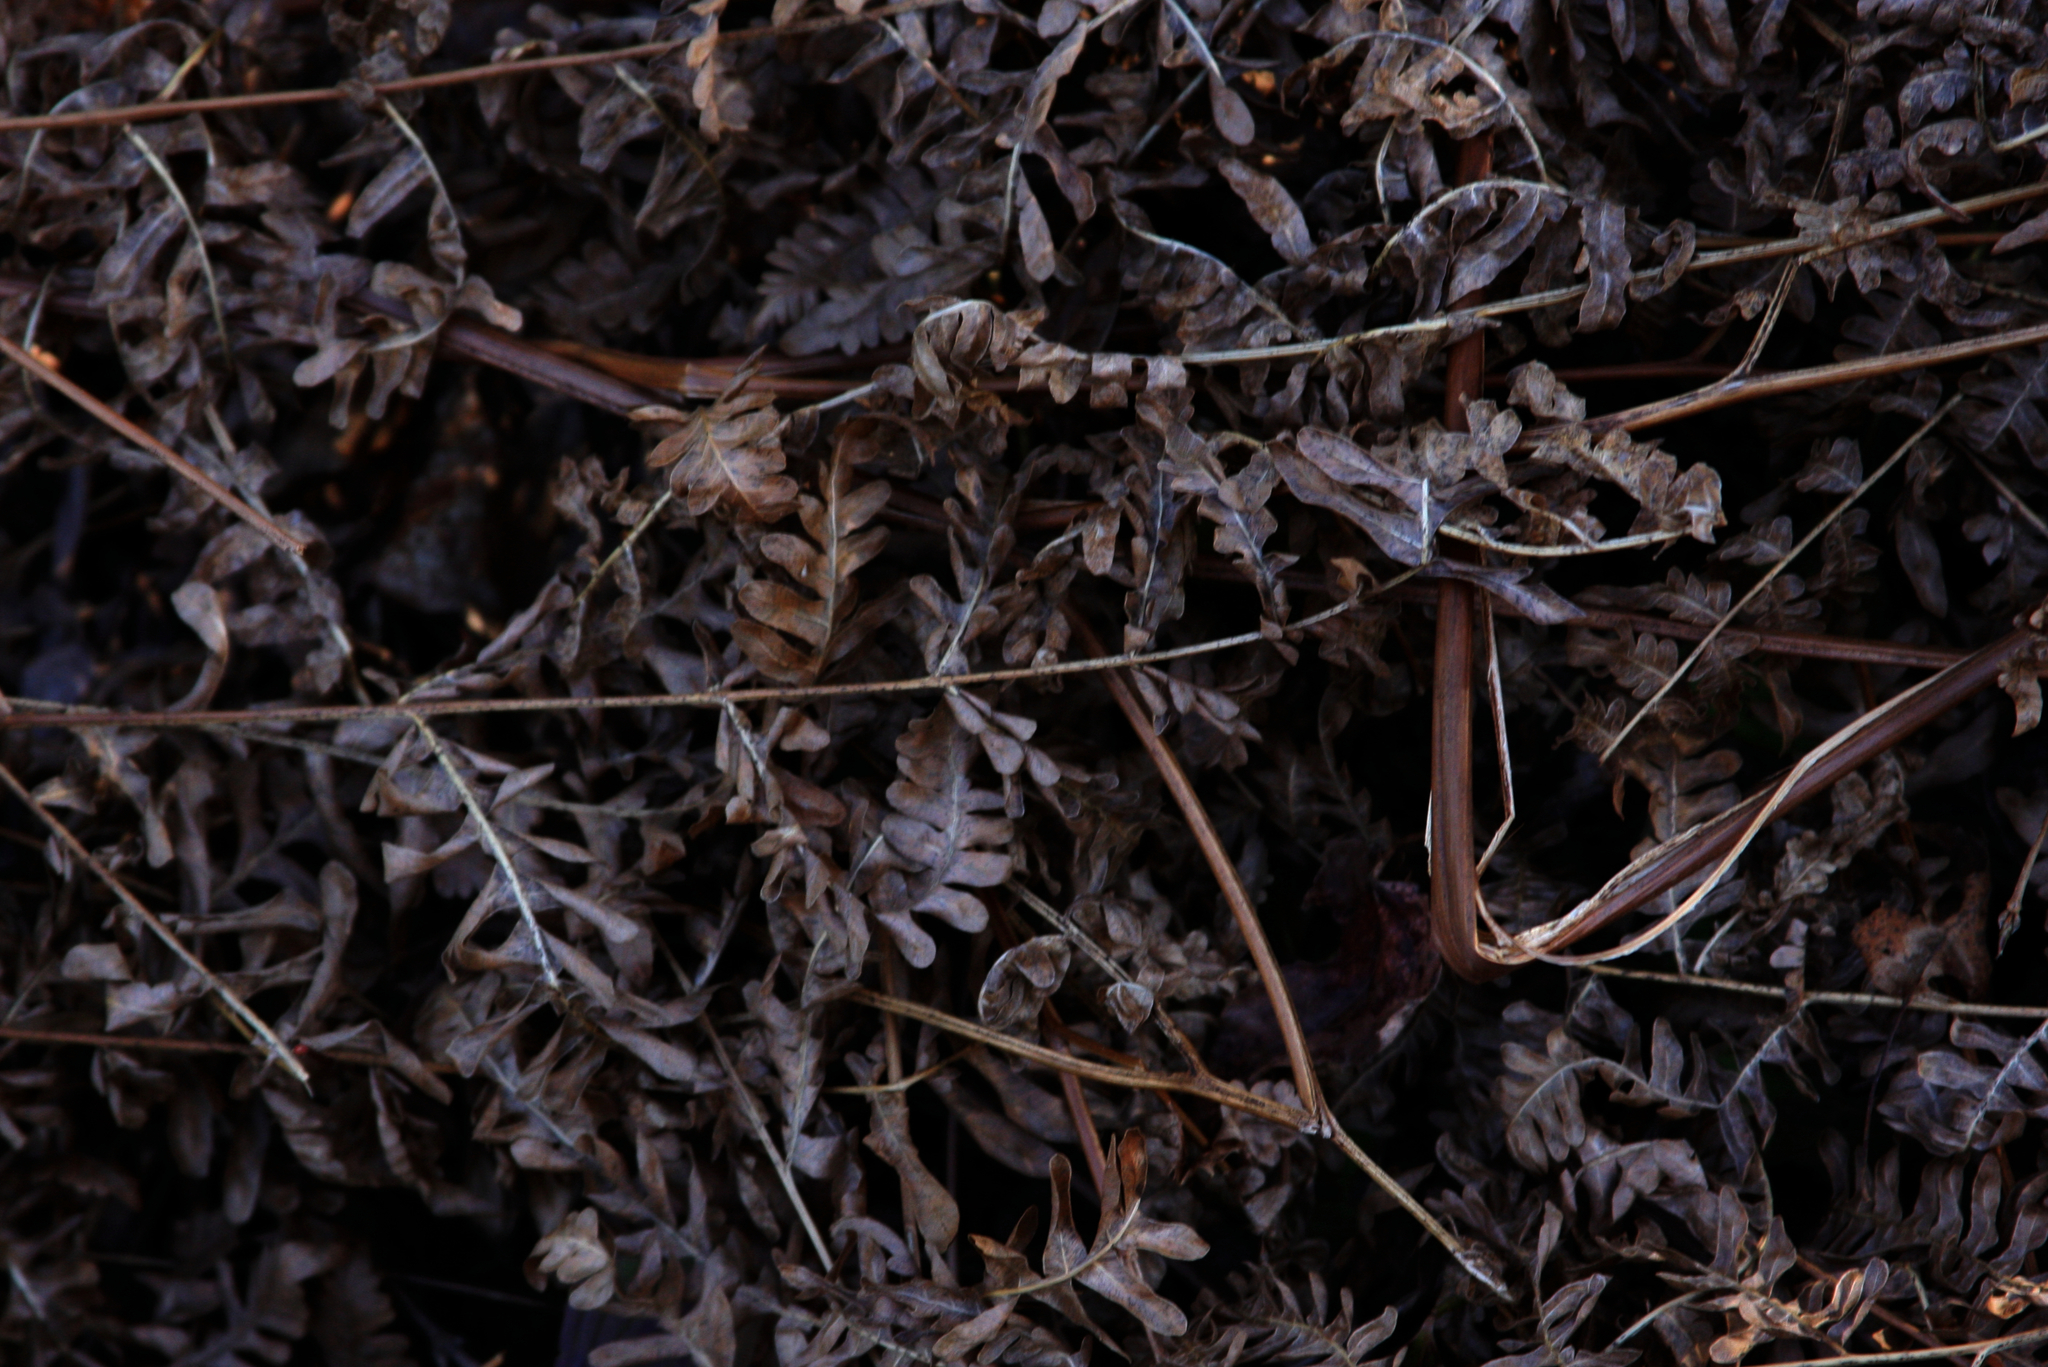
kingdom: Plantae
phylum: Tracheophyta
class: Polypodiopsida
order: Polypodiales
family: Dennstaedtiaceae
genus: Pteridium
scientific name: Pteridium aquilinum
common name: Bracken
